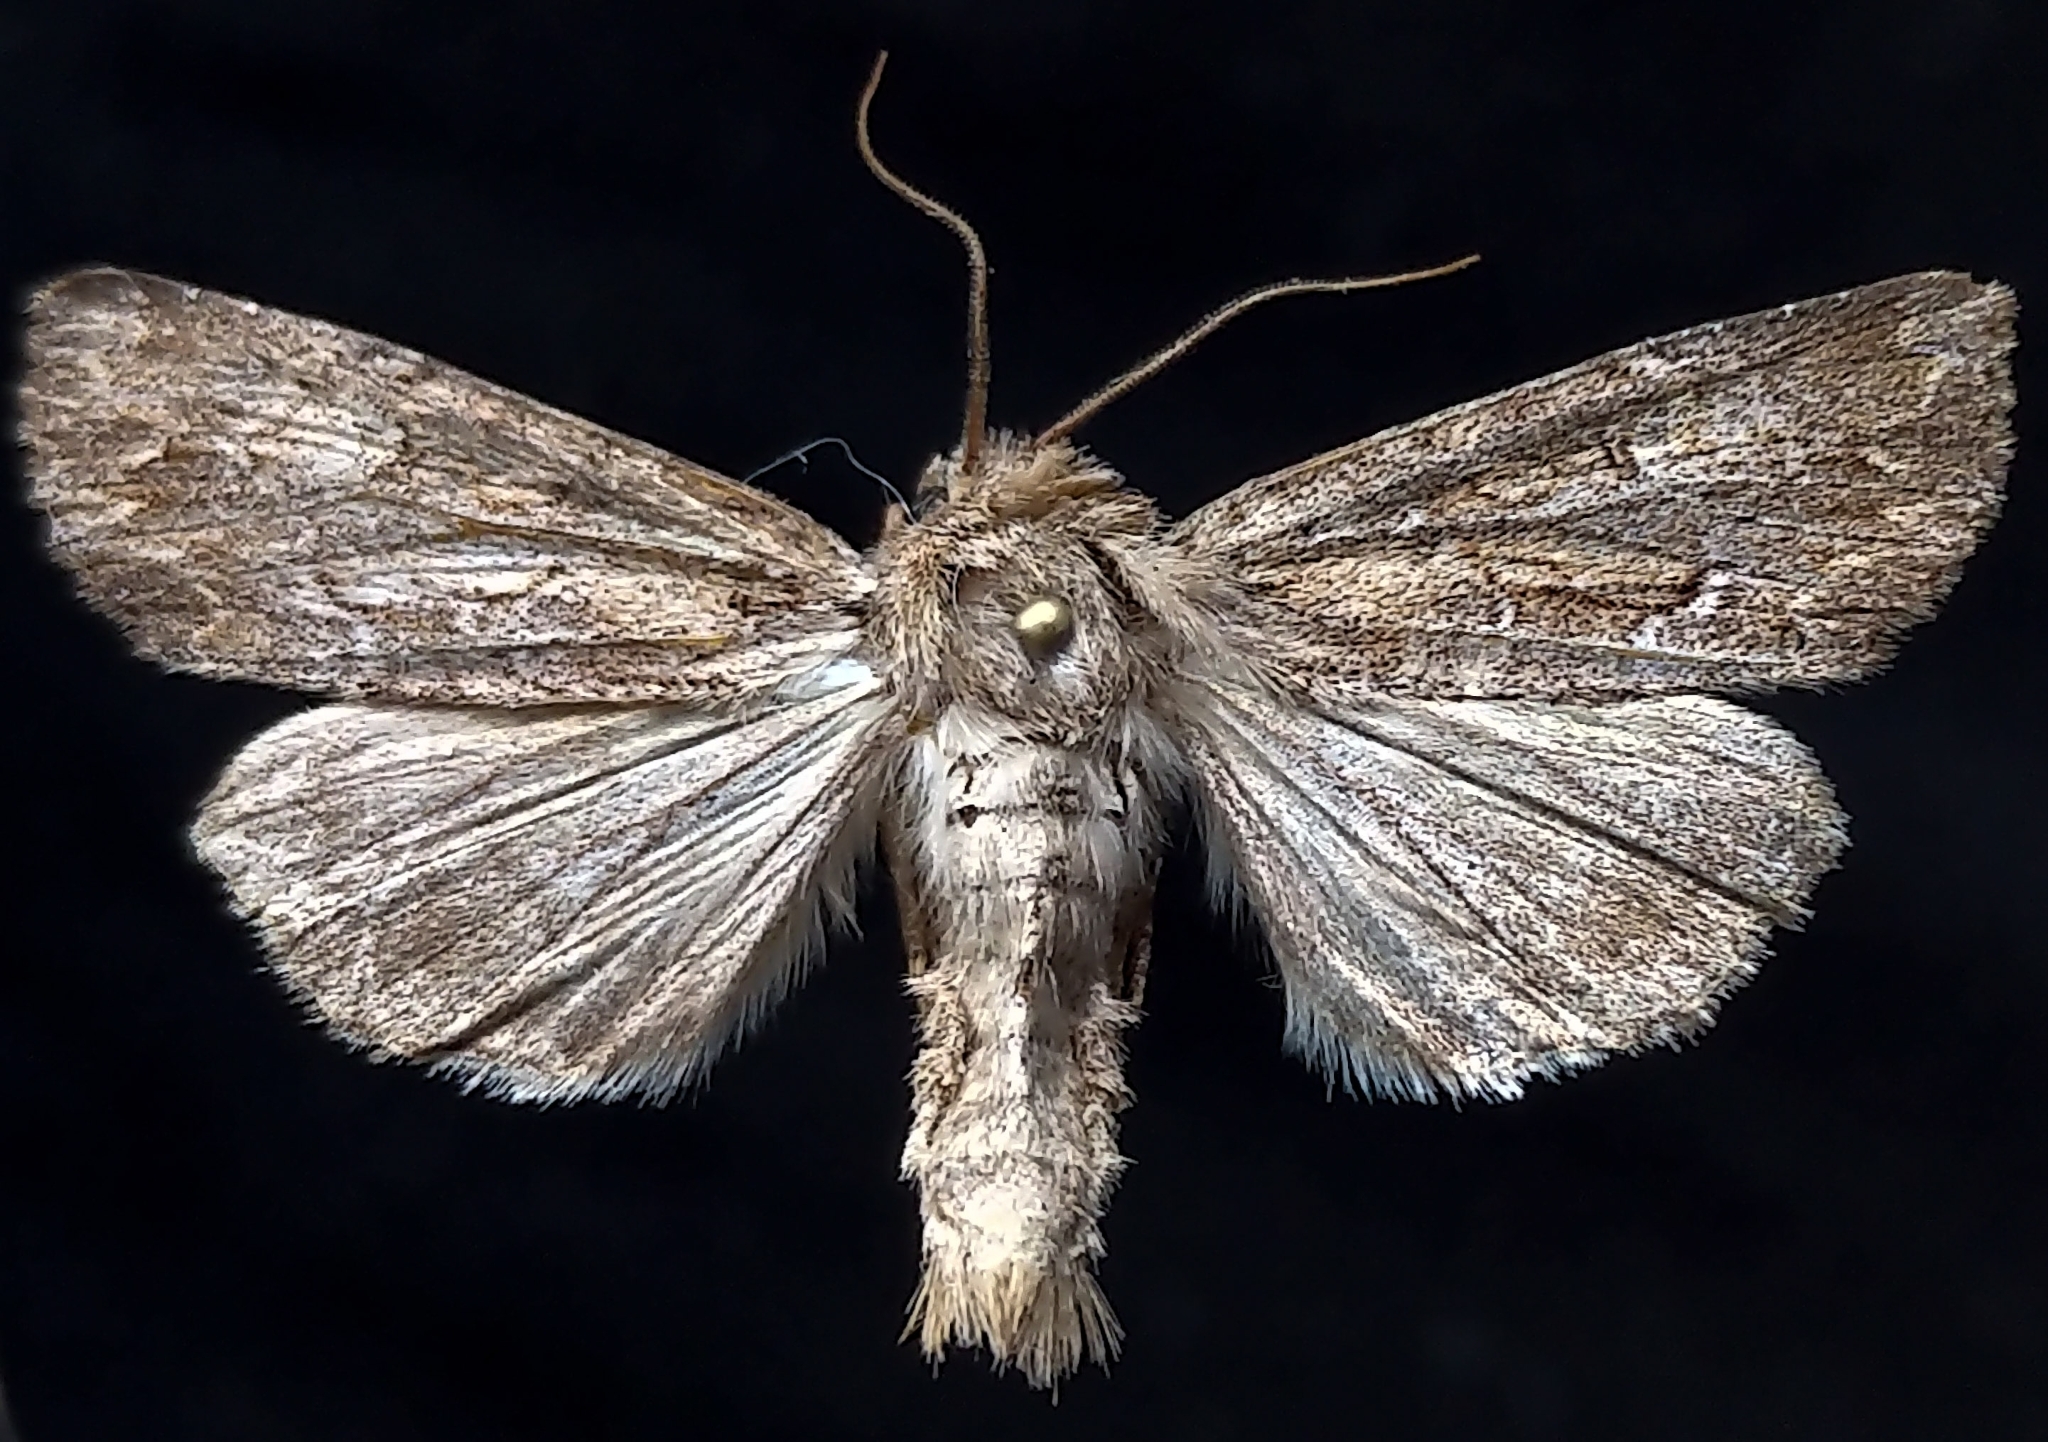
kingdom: Animalia
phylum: Arthropoda
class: Insecta
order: Lepidoptera
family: Noctuidae
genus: Apamea
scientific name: Apamea commoda
